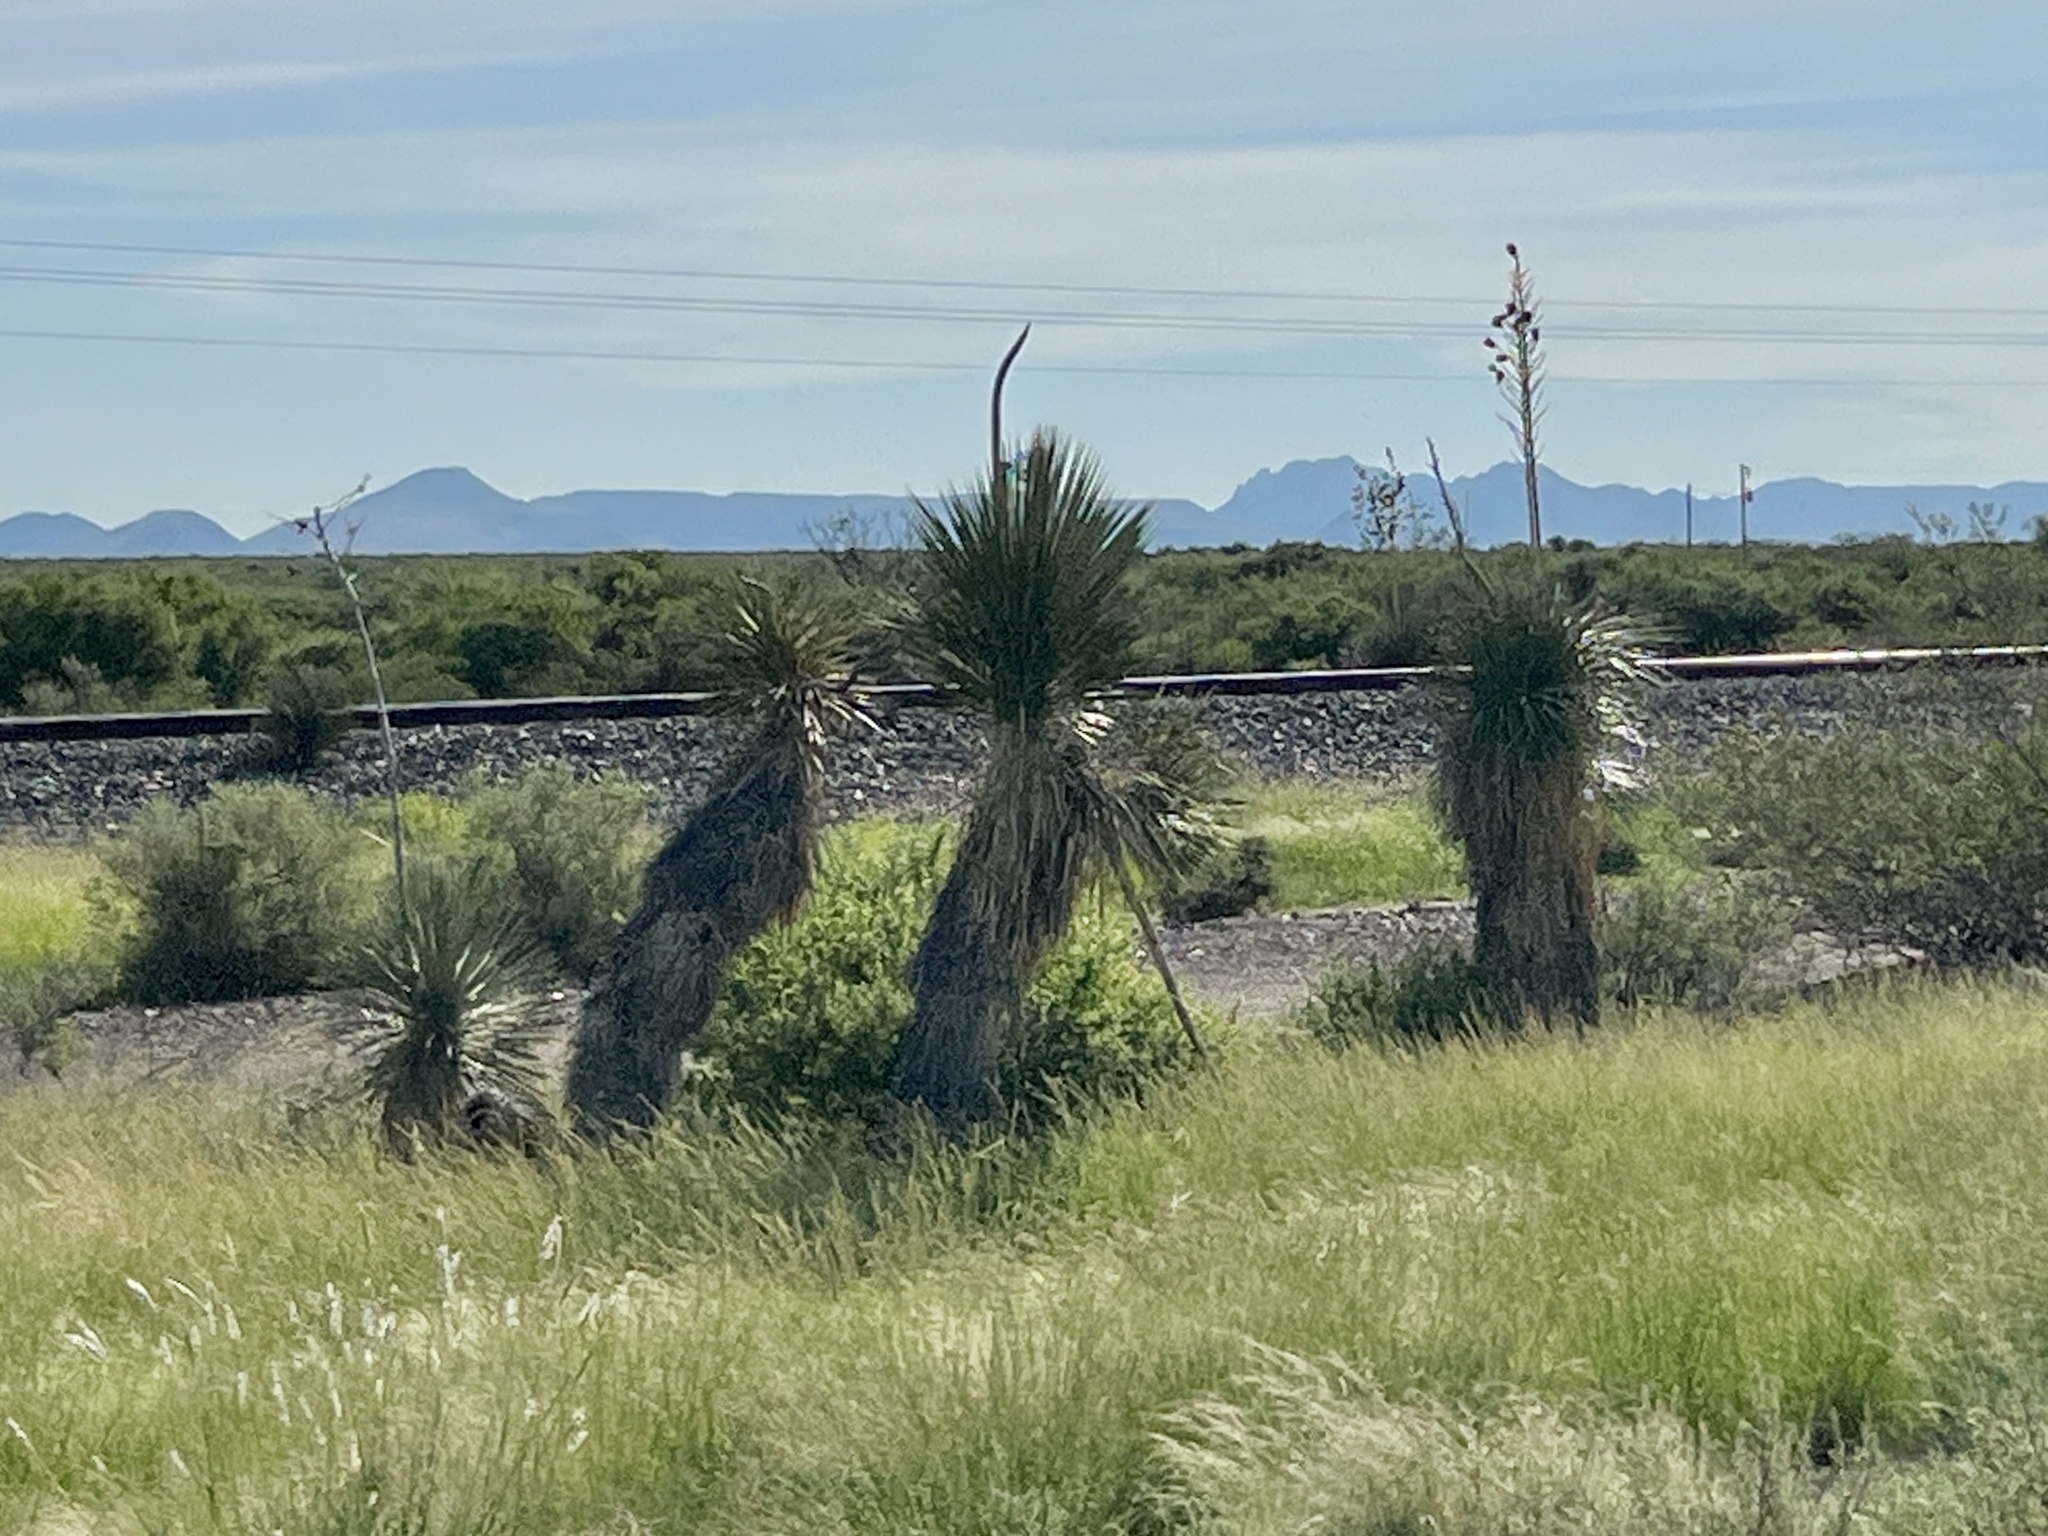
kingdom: Plantae
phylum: Tracheophyta
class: Liliopsida
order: Asparagales
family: Asparagaceae
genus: Yucca
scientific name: Yucca elata
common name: Palmella
